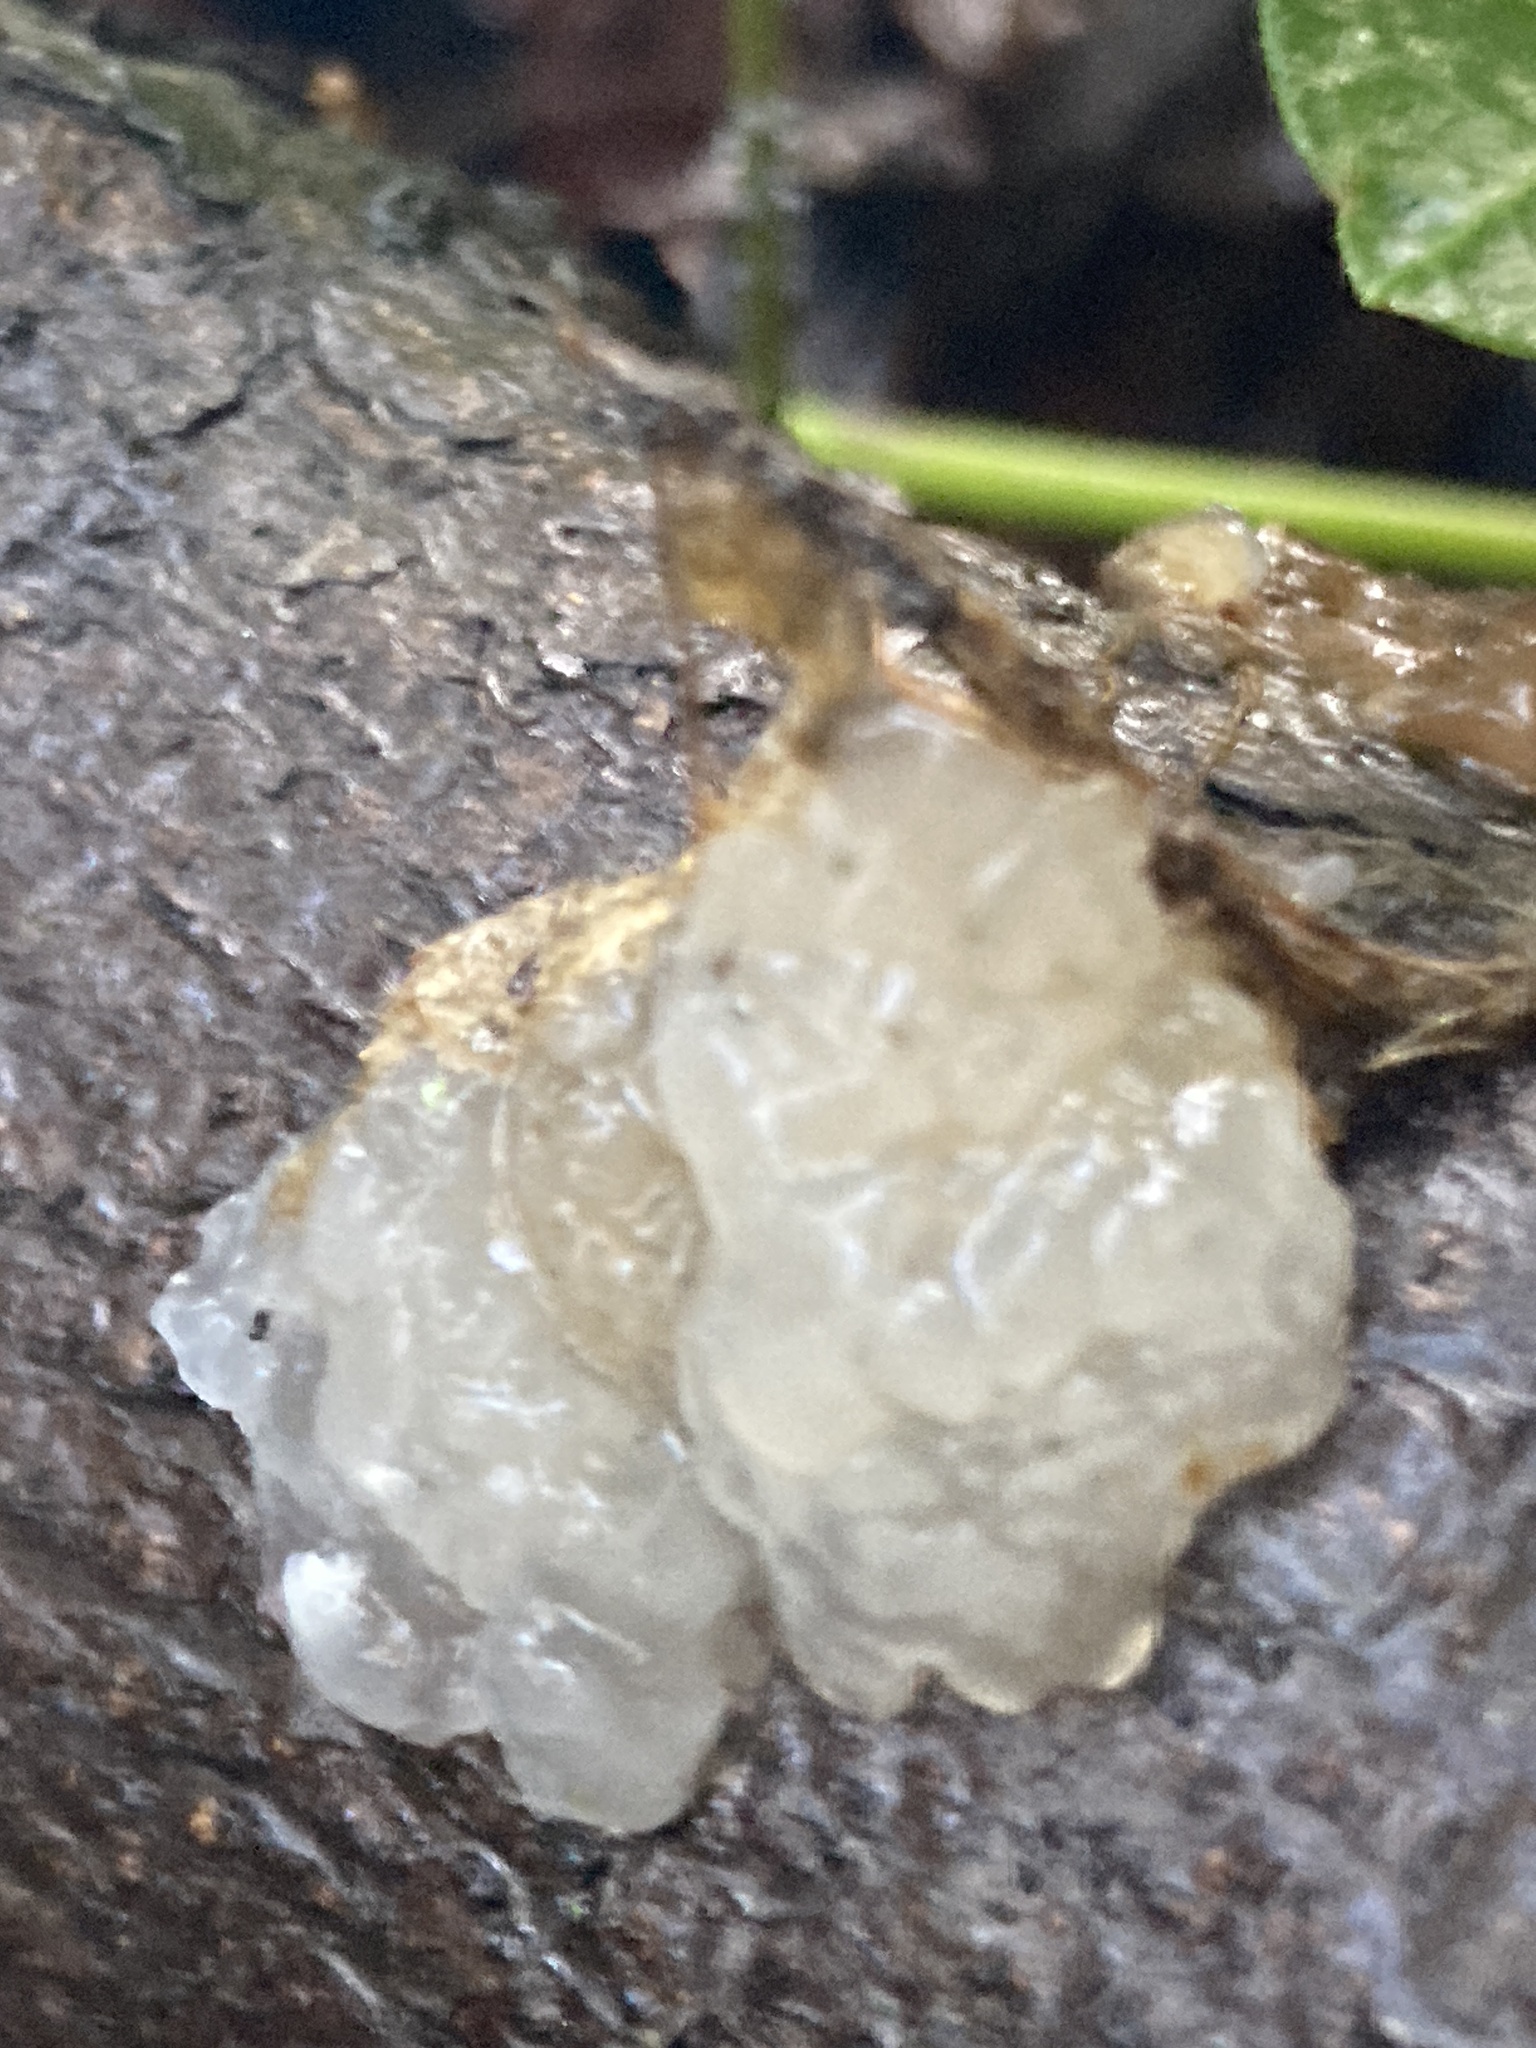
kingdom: Fungi
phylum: Basidiomycota
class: Agaricomycetes
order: Auriculariales
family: Hyaloriaceae
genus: Myxarium
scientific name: Myxarium nucleatum
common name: Crystal brain fungus
